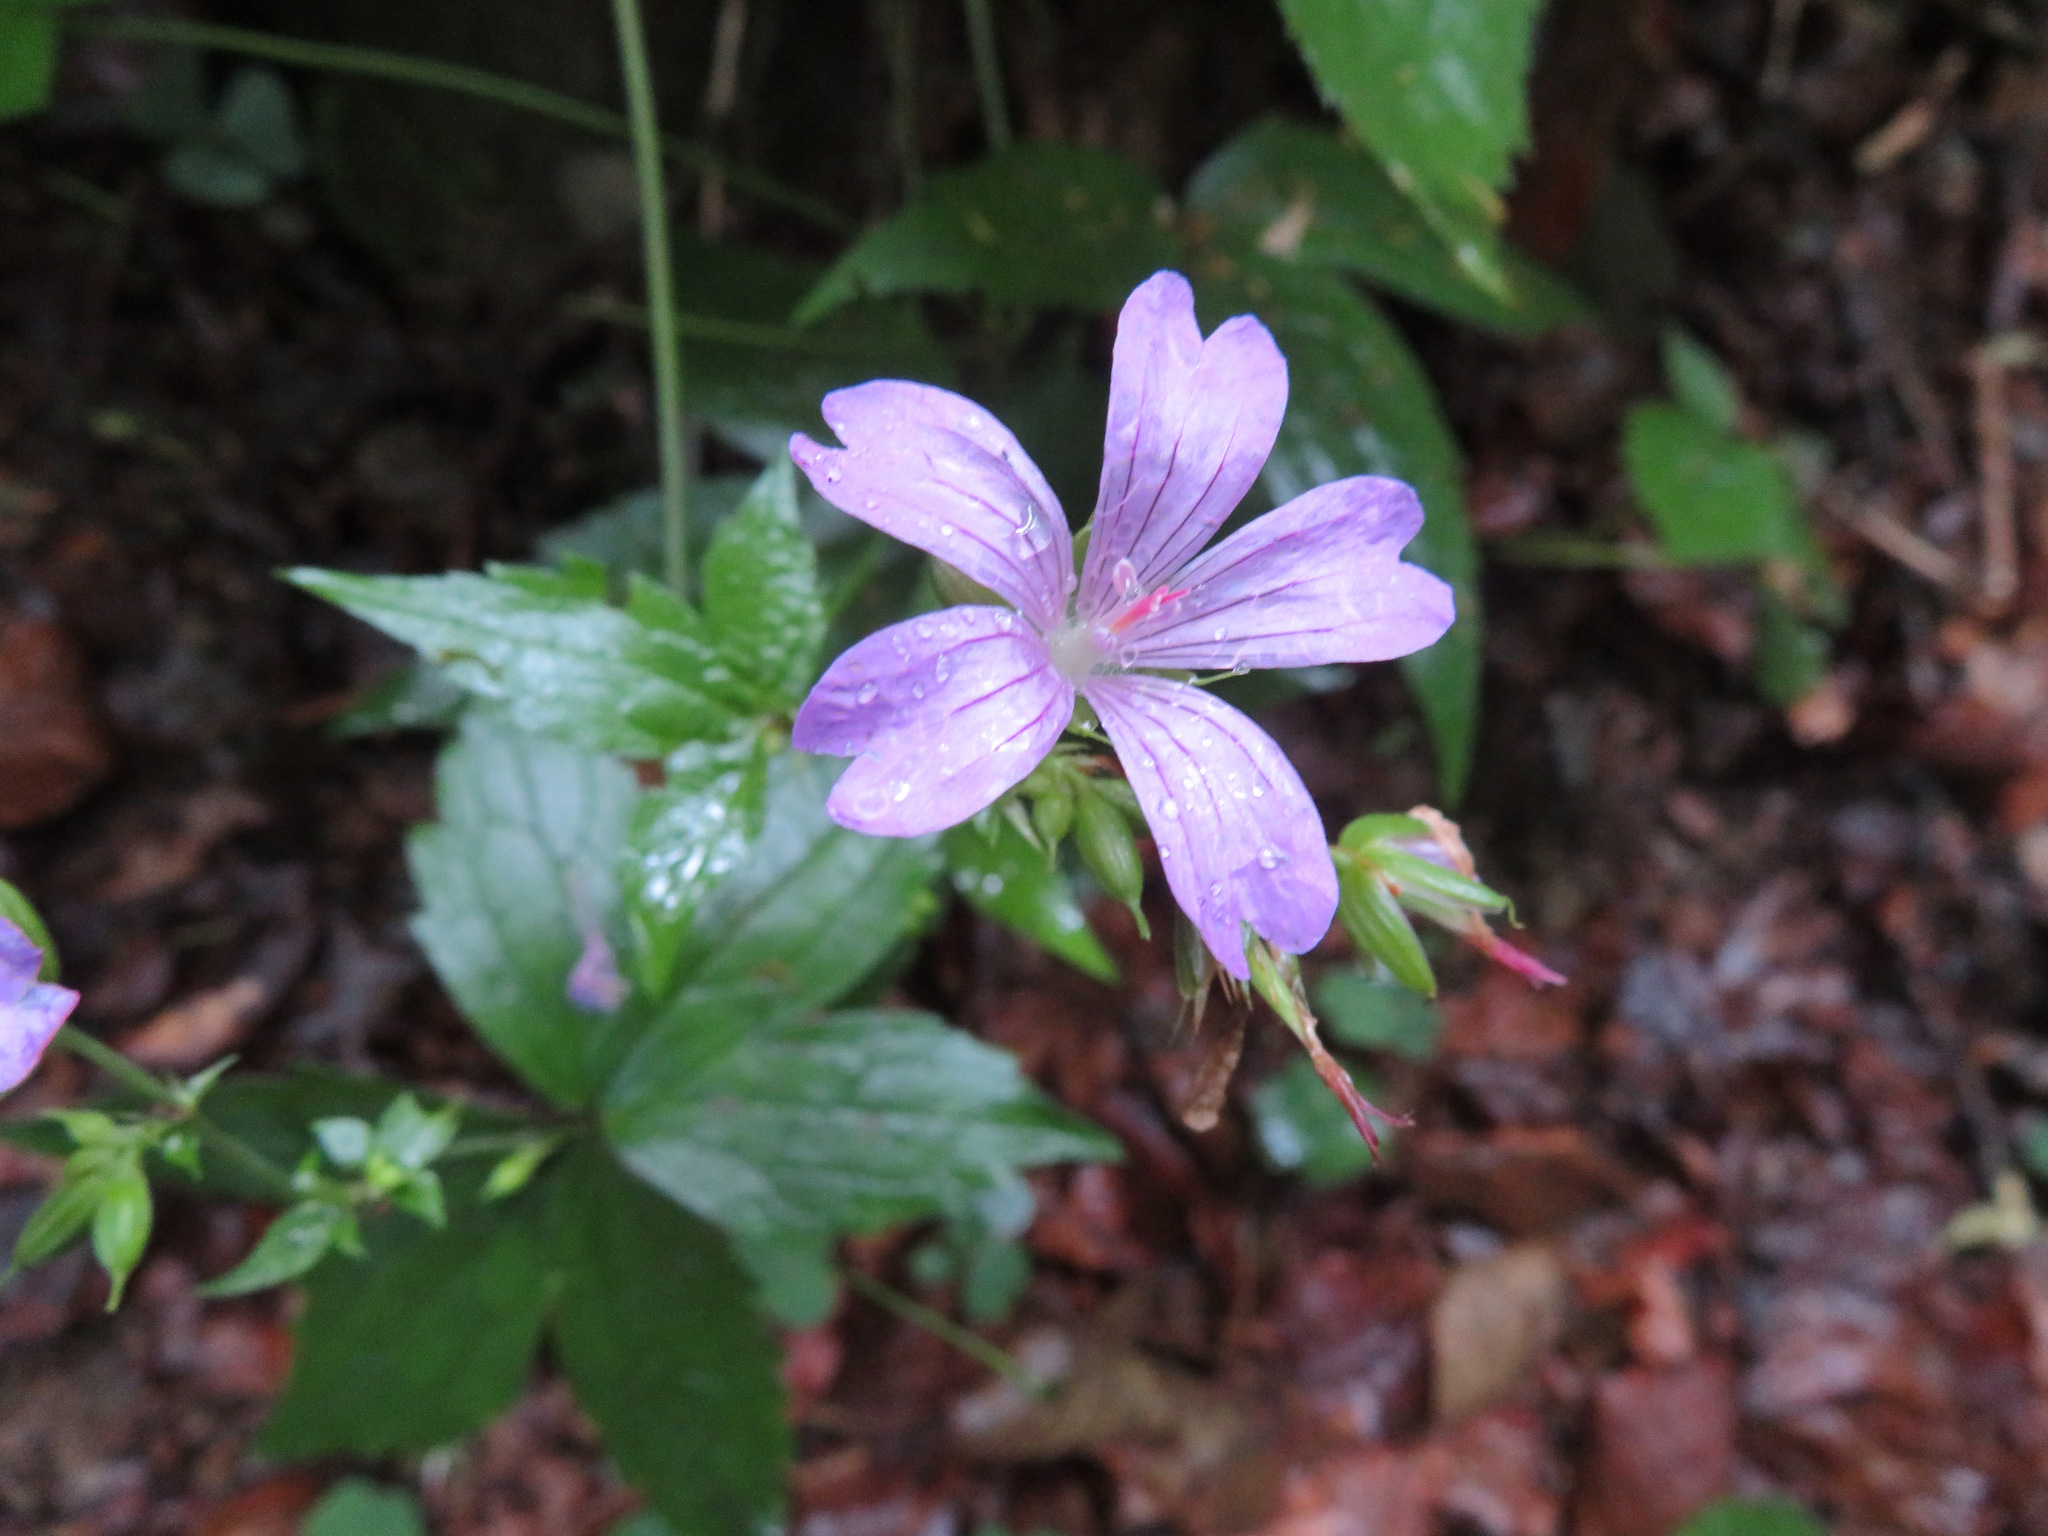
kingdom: Plantae
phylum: Tracheophyta
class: Magnoliopsida
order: Geraniales
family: Geraniaceae
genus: Geranium
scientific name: Geranium nodosum
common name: Knotted crane's-bill
